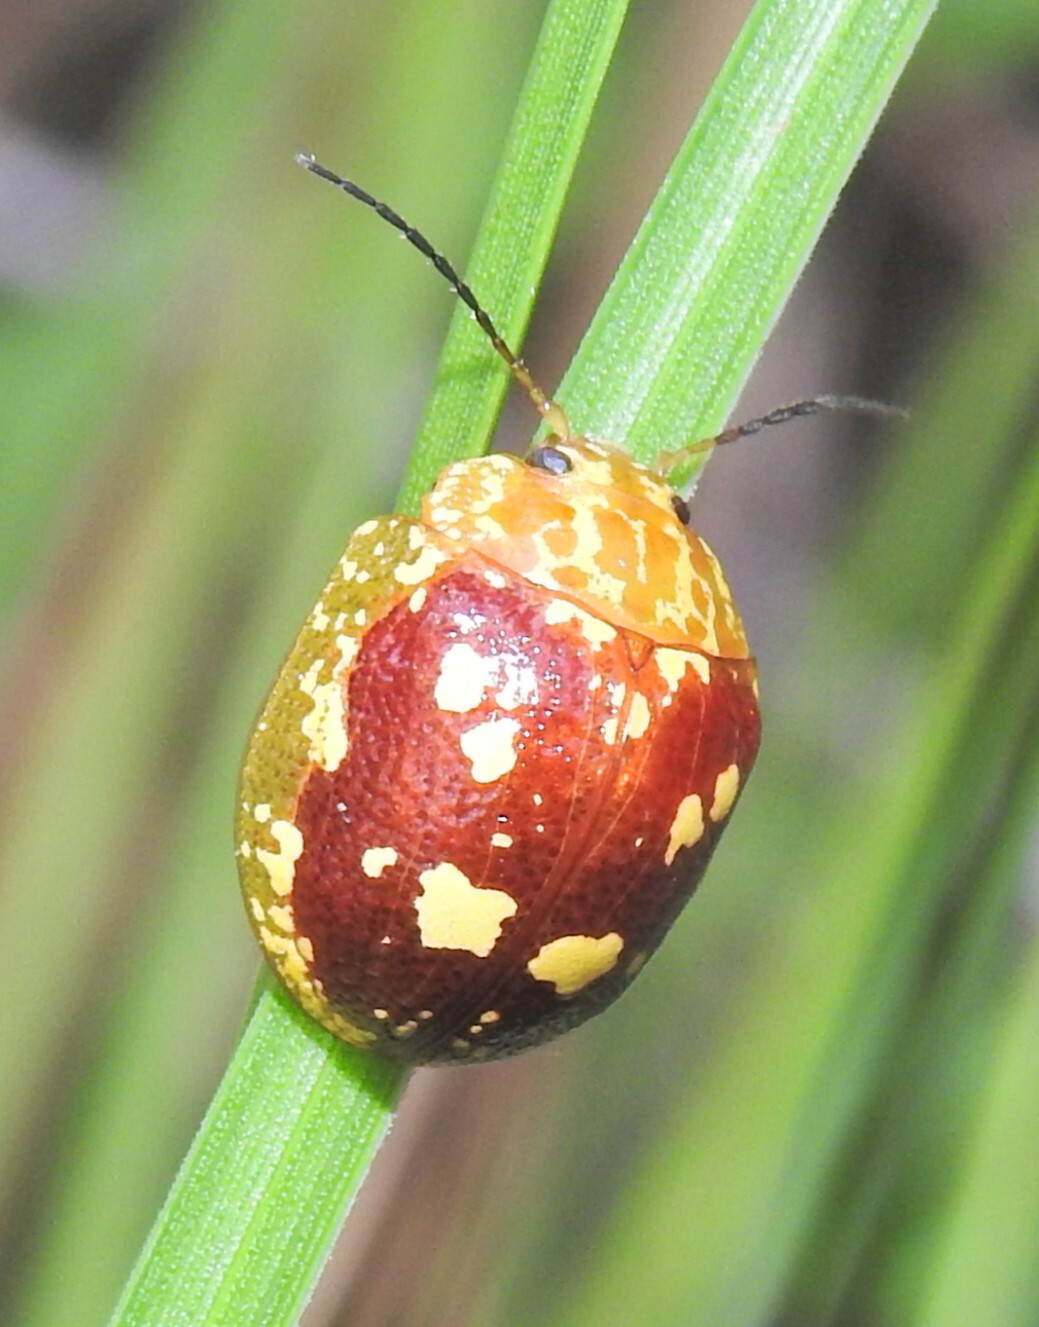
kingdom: Animalia
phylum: Arthropoda
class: Insecta
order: Coleoptera
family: Chrysomelidae
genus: Paropsis
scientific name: Paropsis maculata
